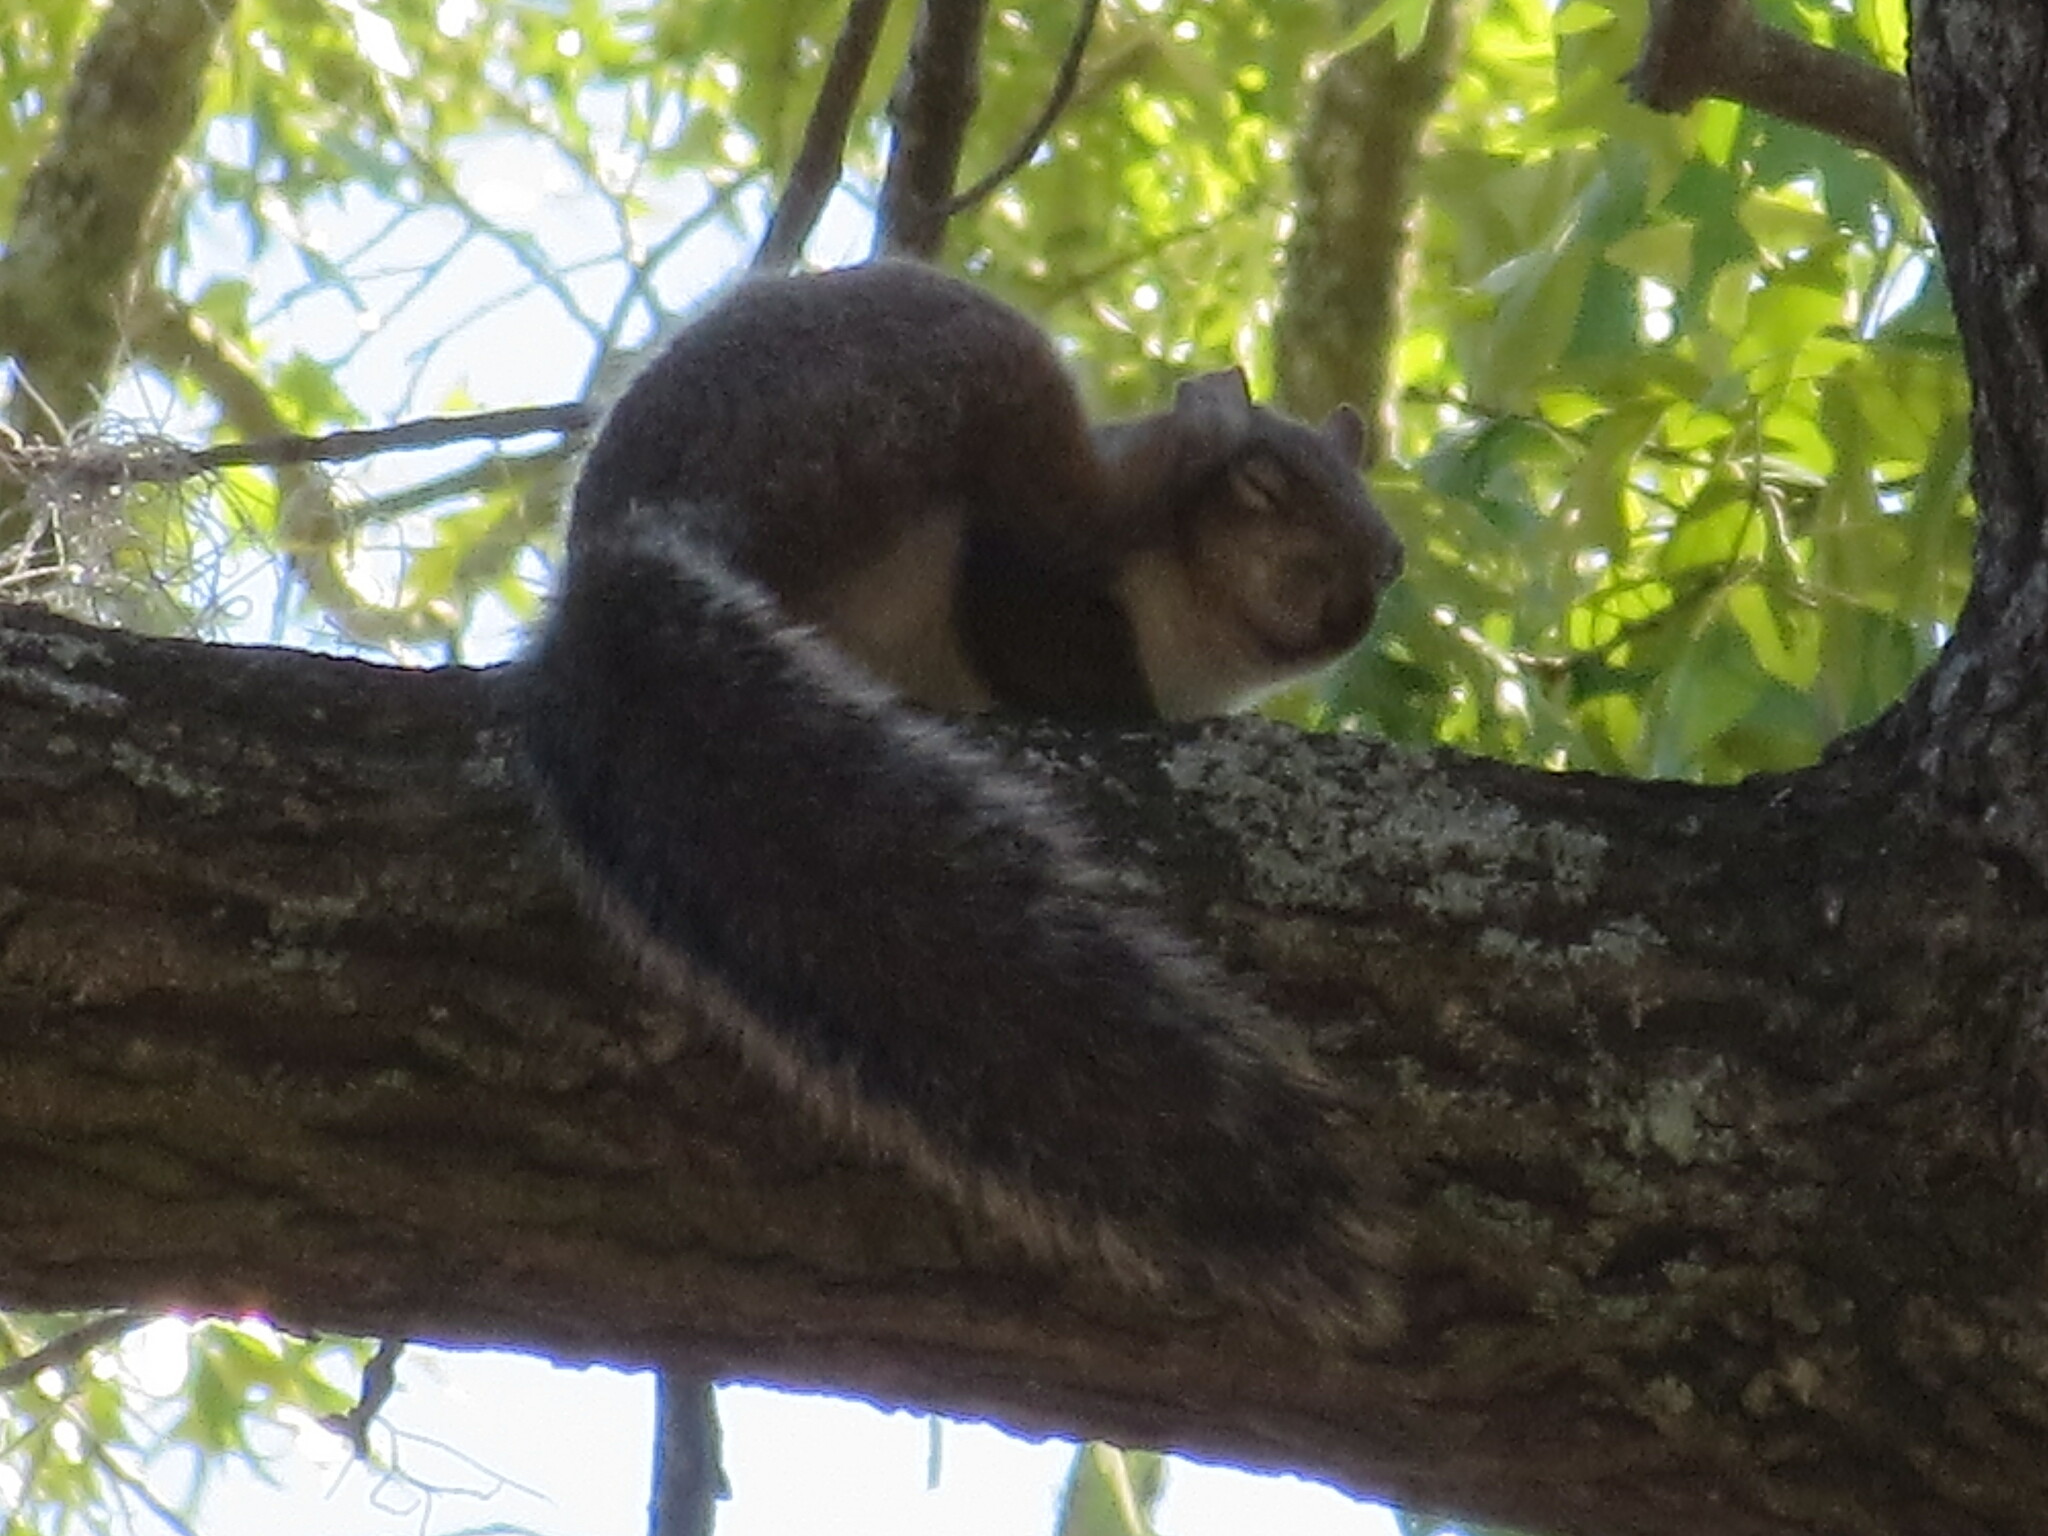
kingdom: Animalia
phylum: Chordata
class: Mammalia
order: Rodentia
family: Sciuridae
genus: Sciurus
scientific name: Sciurus carolinensis
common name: Eastern gray squirrel
